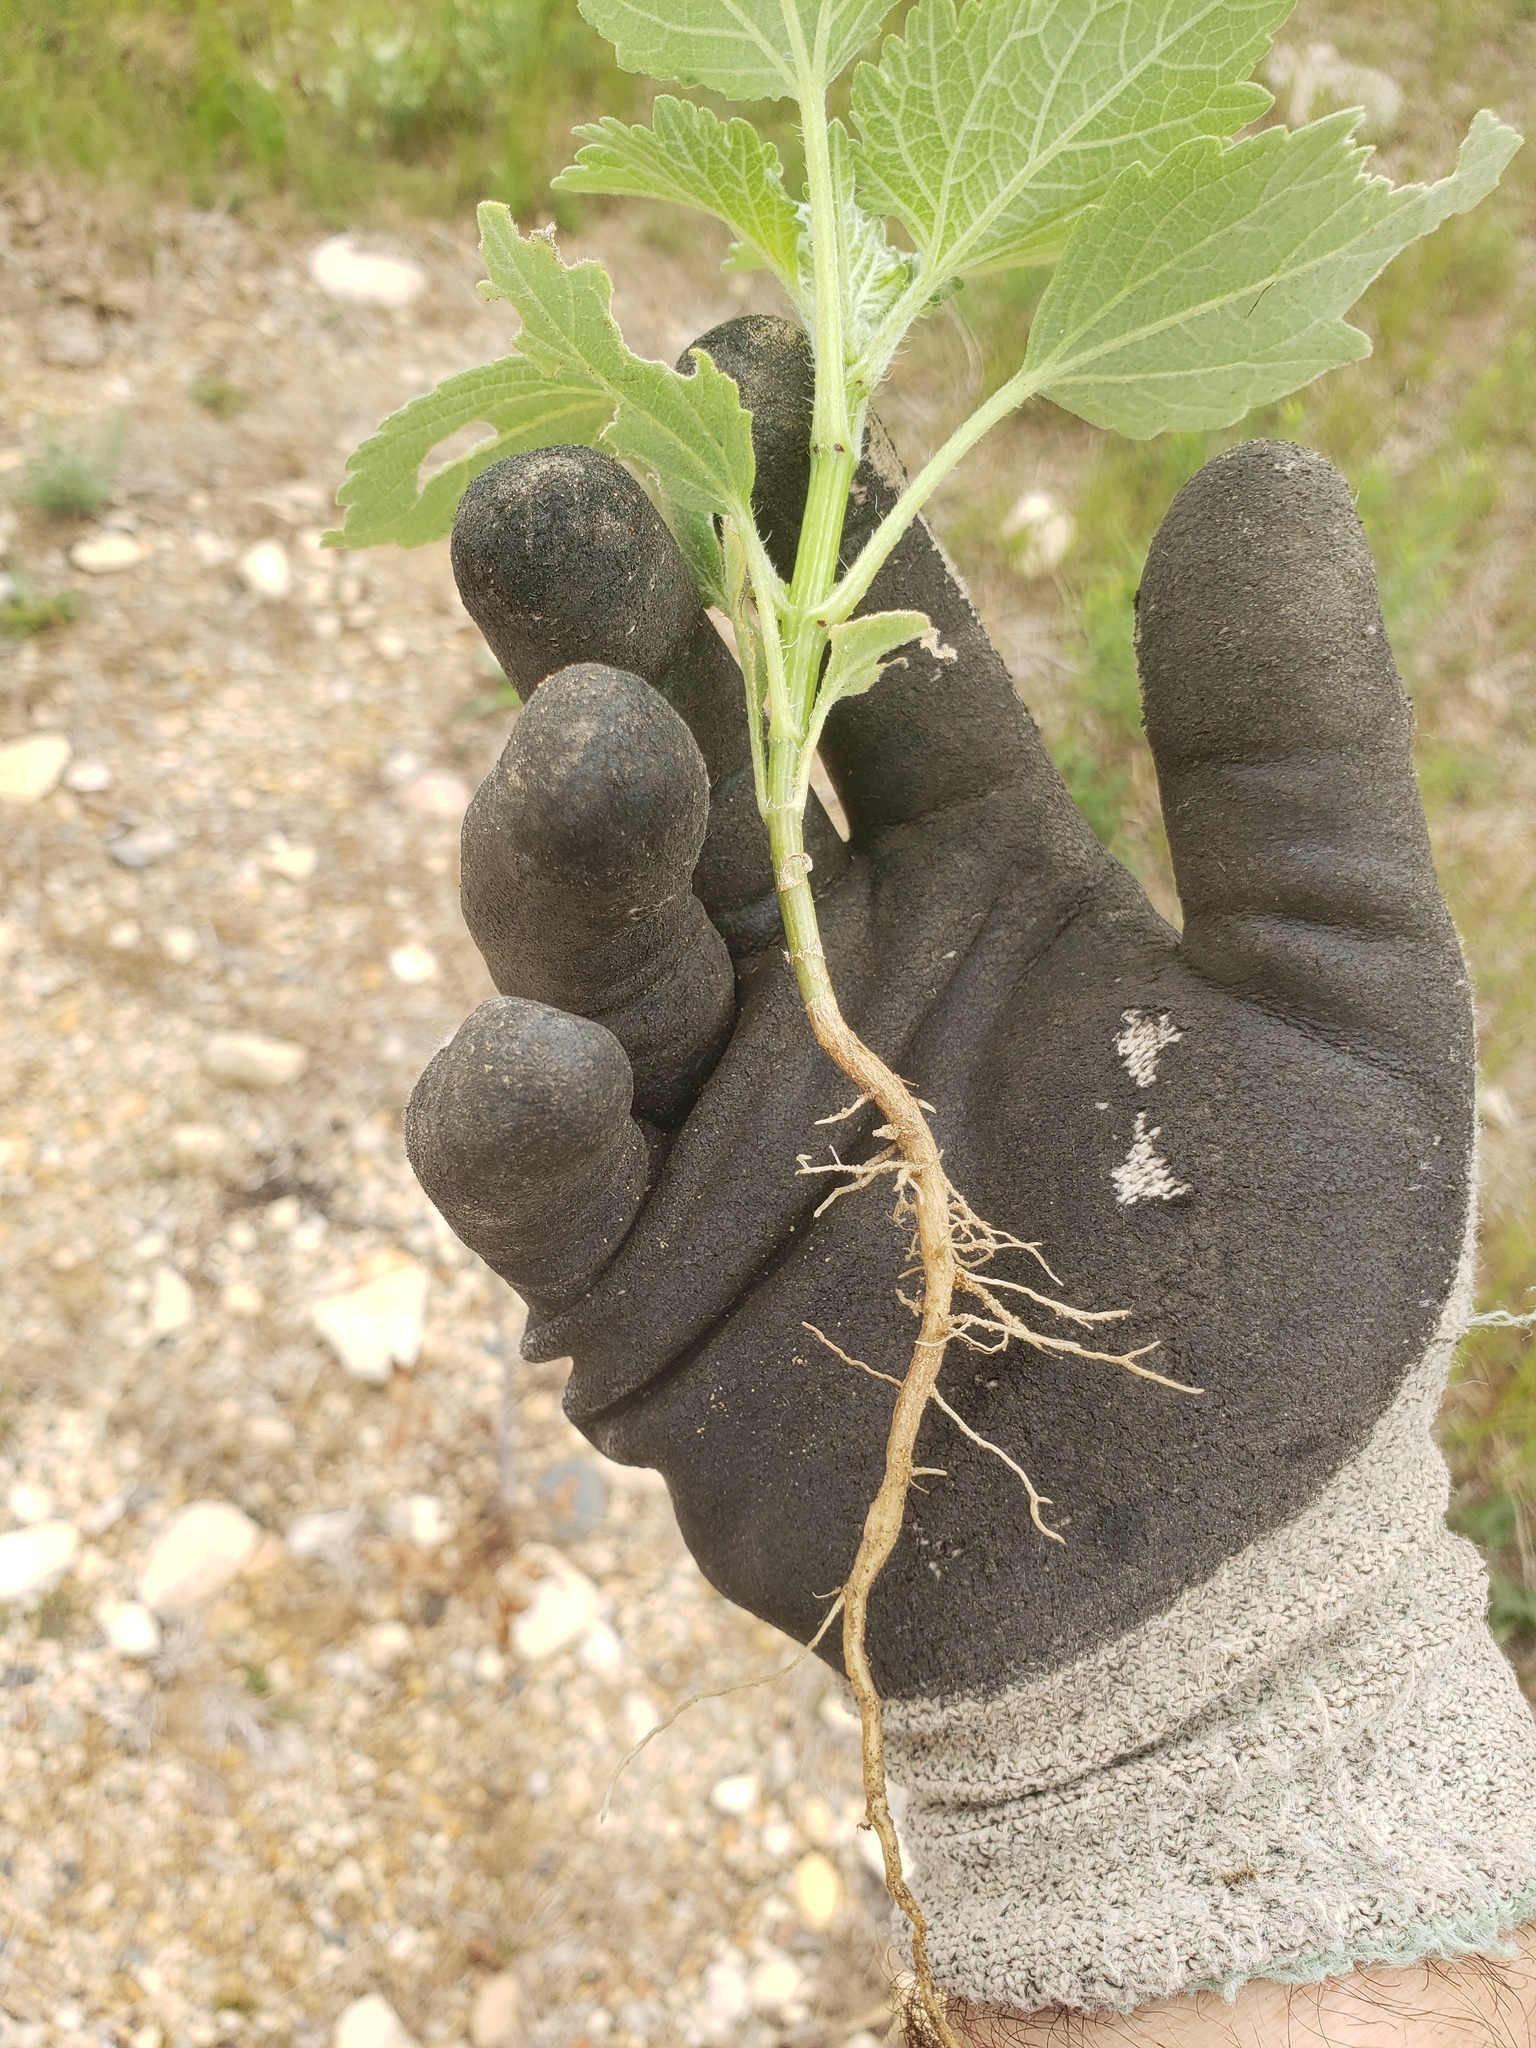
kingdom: Plantae
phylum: Tracheophyta
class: Magnoliopsida
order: Asterales
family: Asteraceae
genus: Cyclachaena
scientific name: Cyclachaena xanthiifolia
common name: Giant sumpweed
